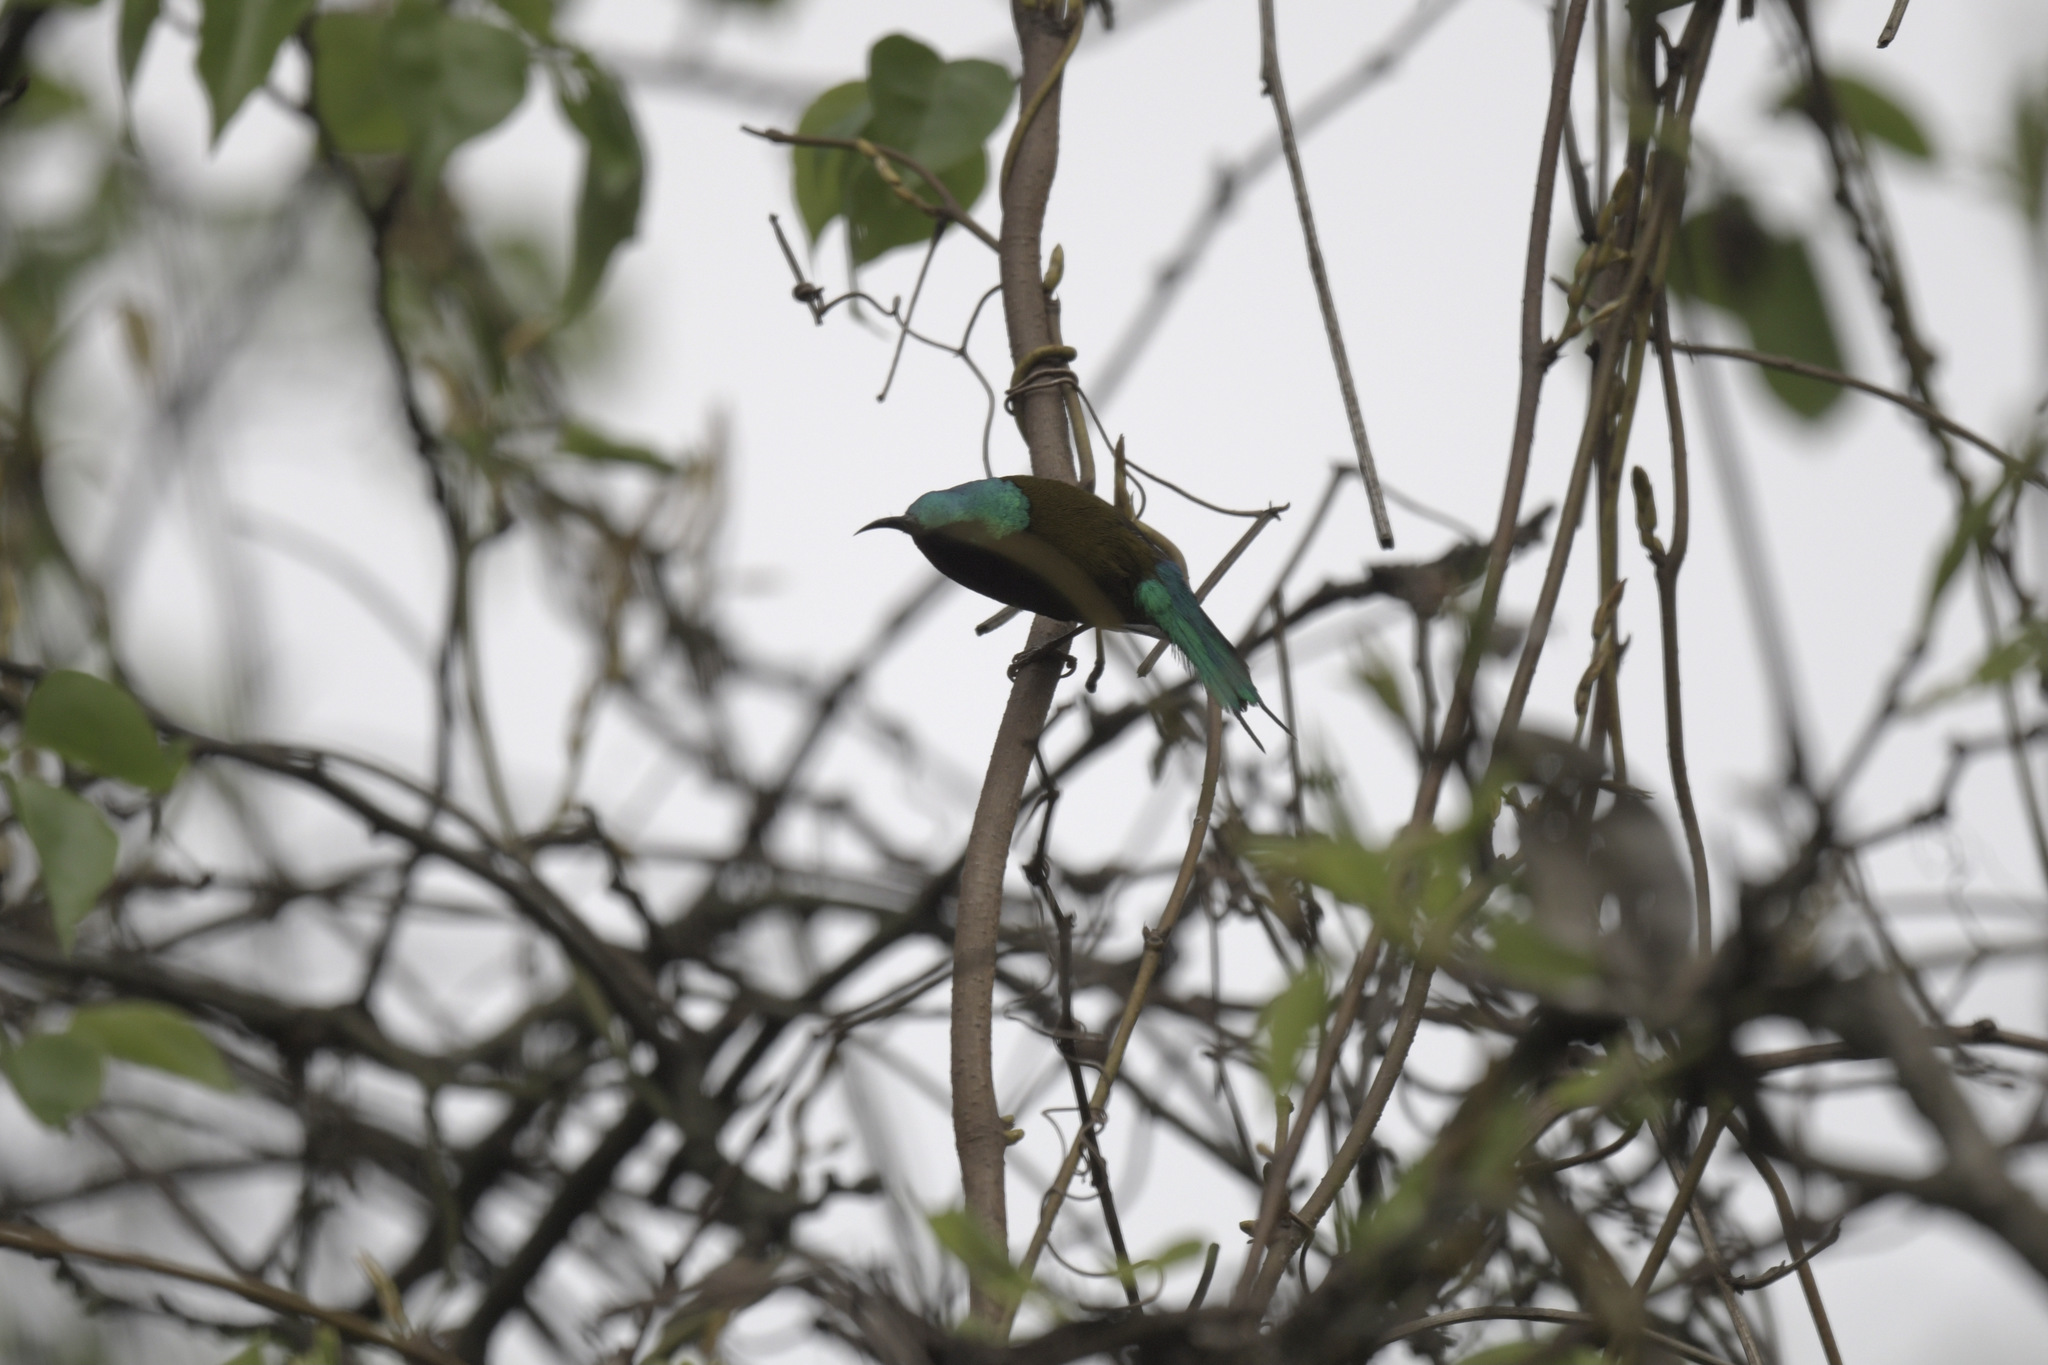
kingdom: Animalia
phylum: Chordata
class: Aves
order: Passeriformes
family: Nectariniidae
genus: Aethopyga
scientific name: Aethopyga christinae
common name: Fork-tailed sunbird
